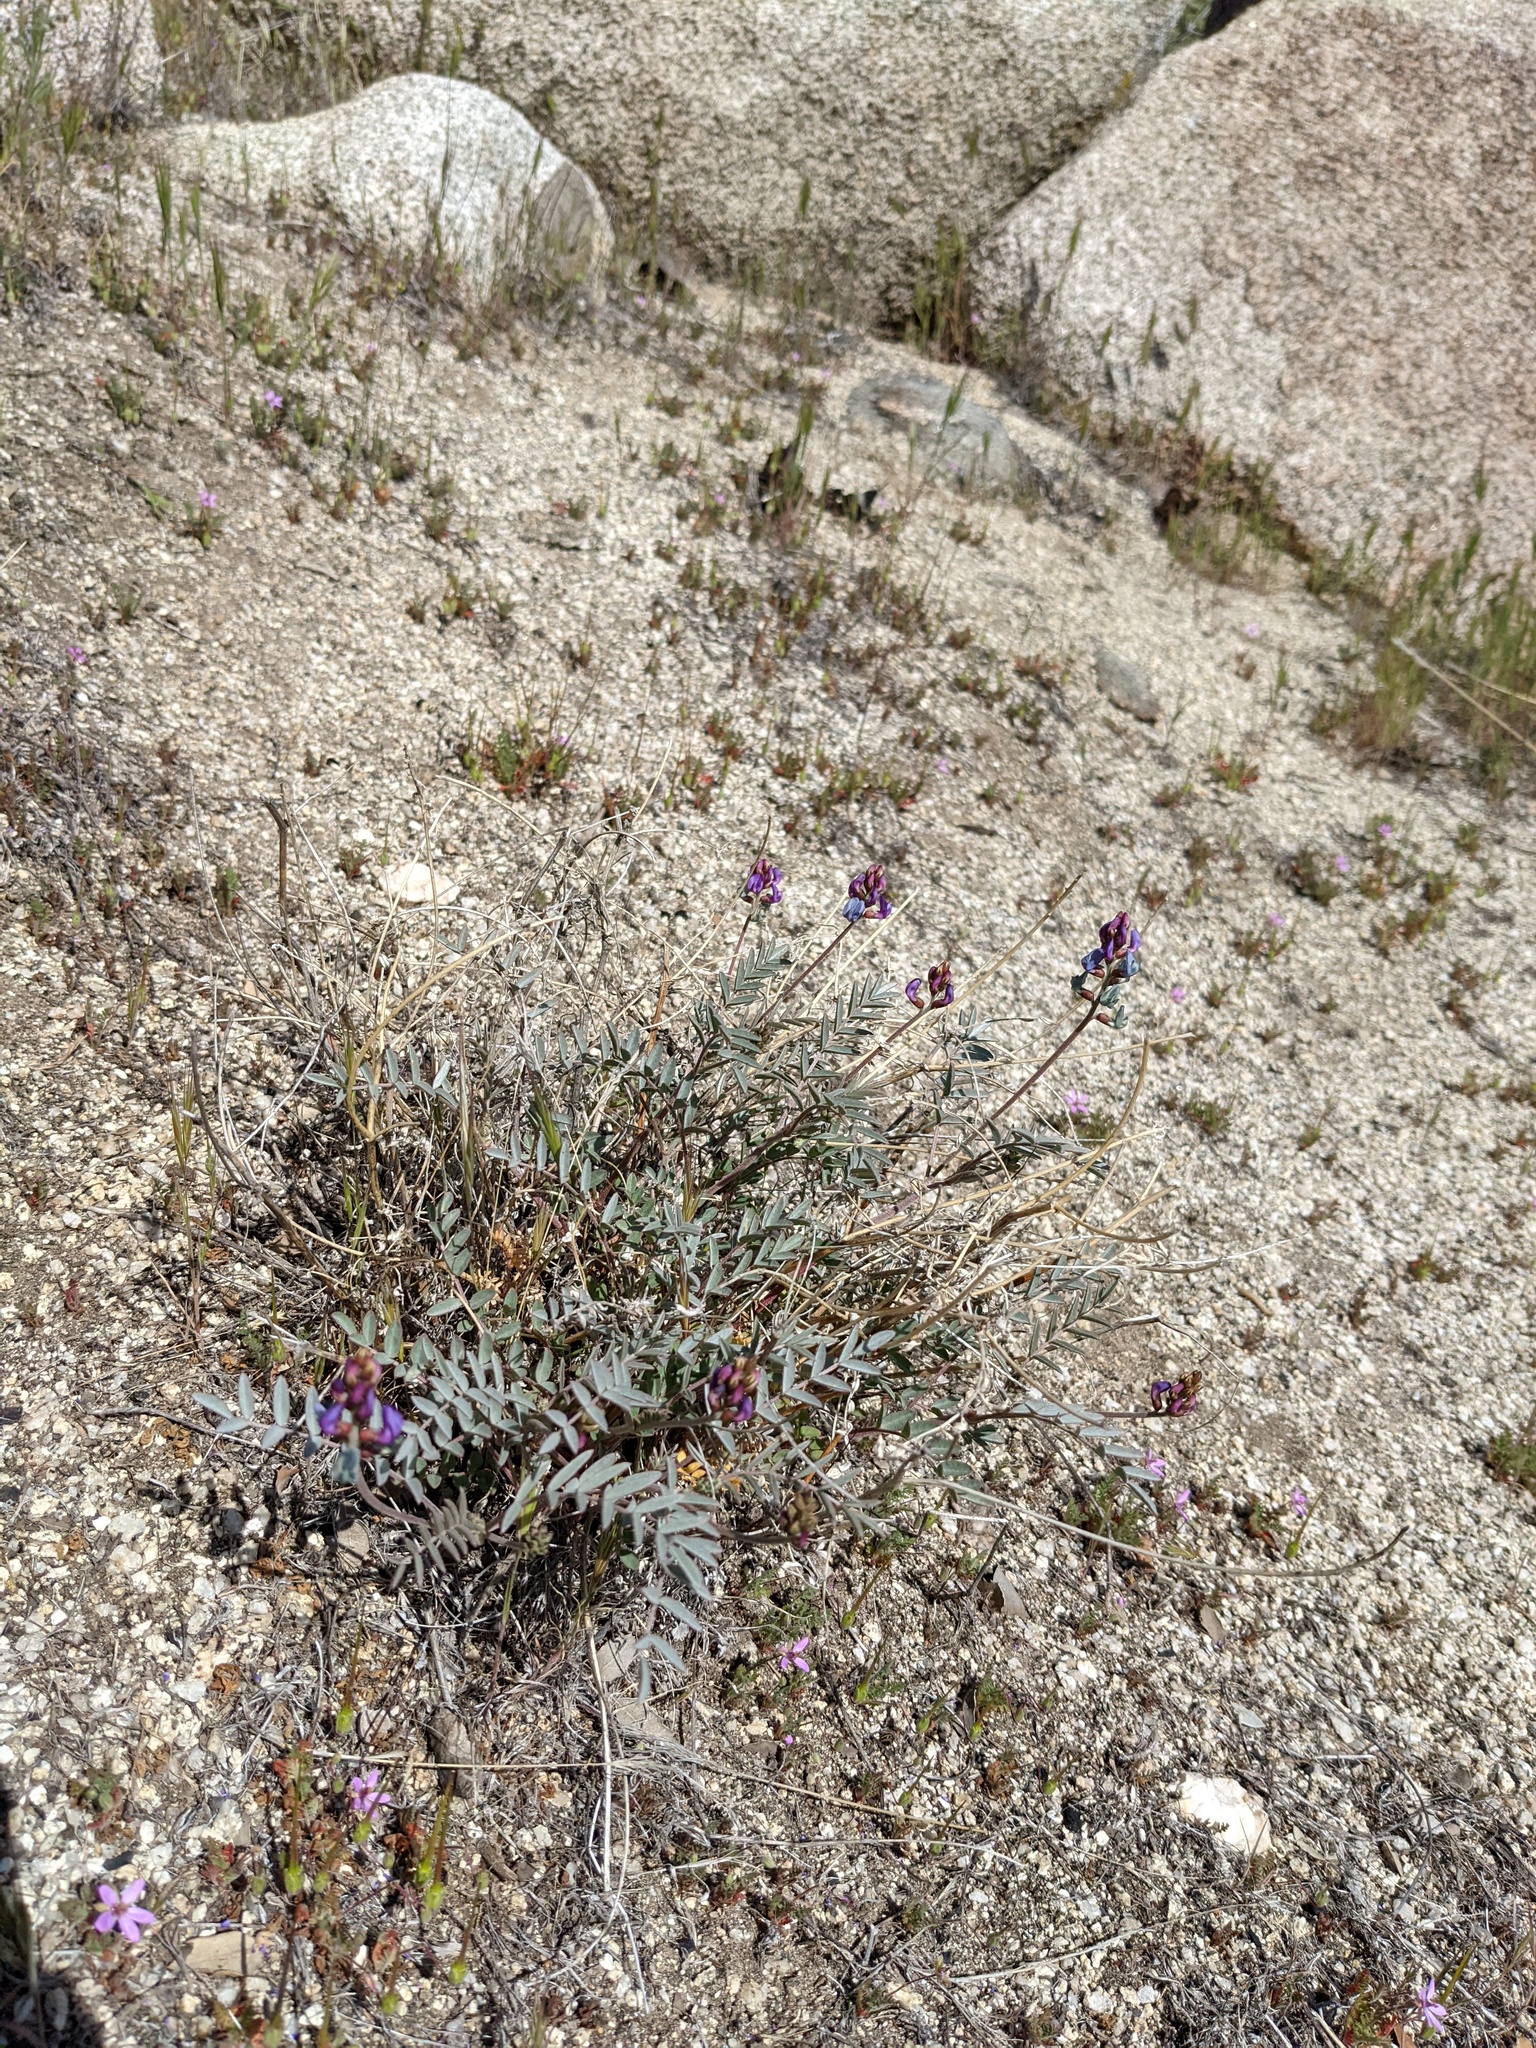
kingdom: Plantae
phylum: Tracheophyta
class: Magnoliopsida
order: Fabales
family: Fabaceae
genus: Astragalus
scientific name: Astragalus palmeri
